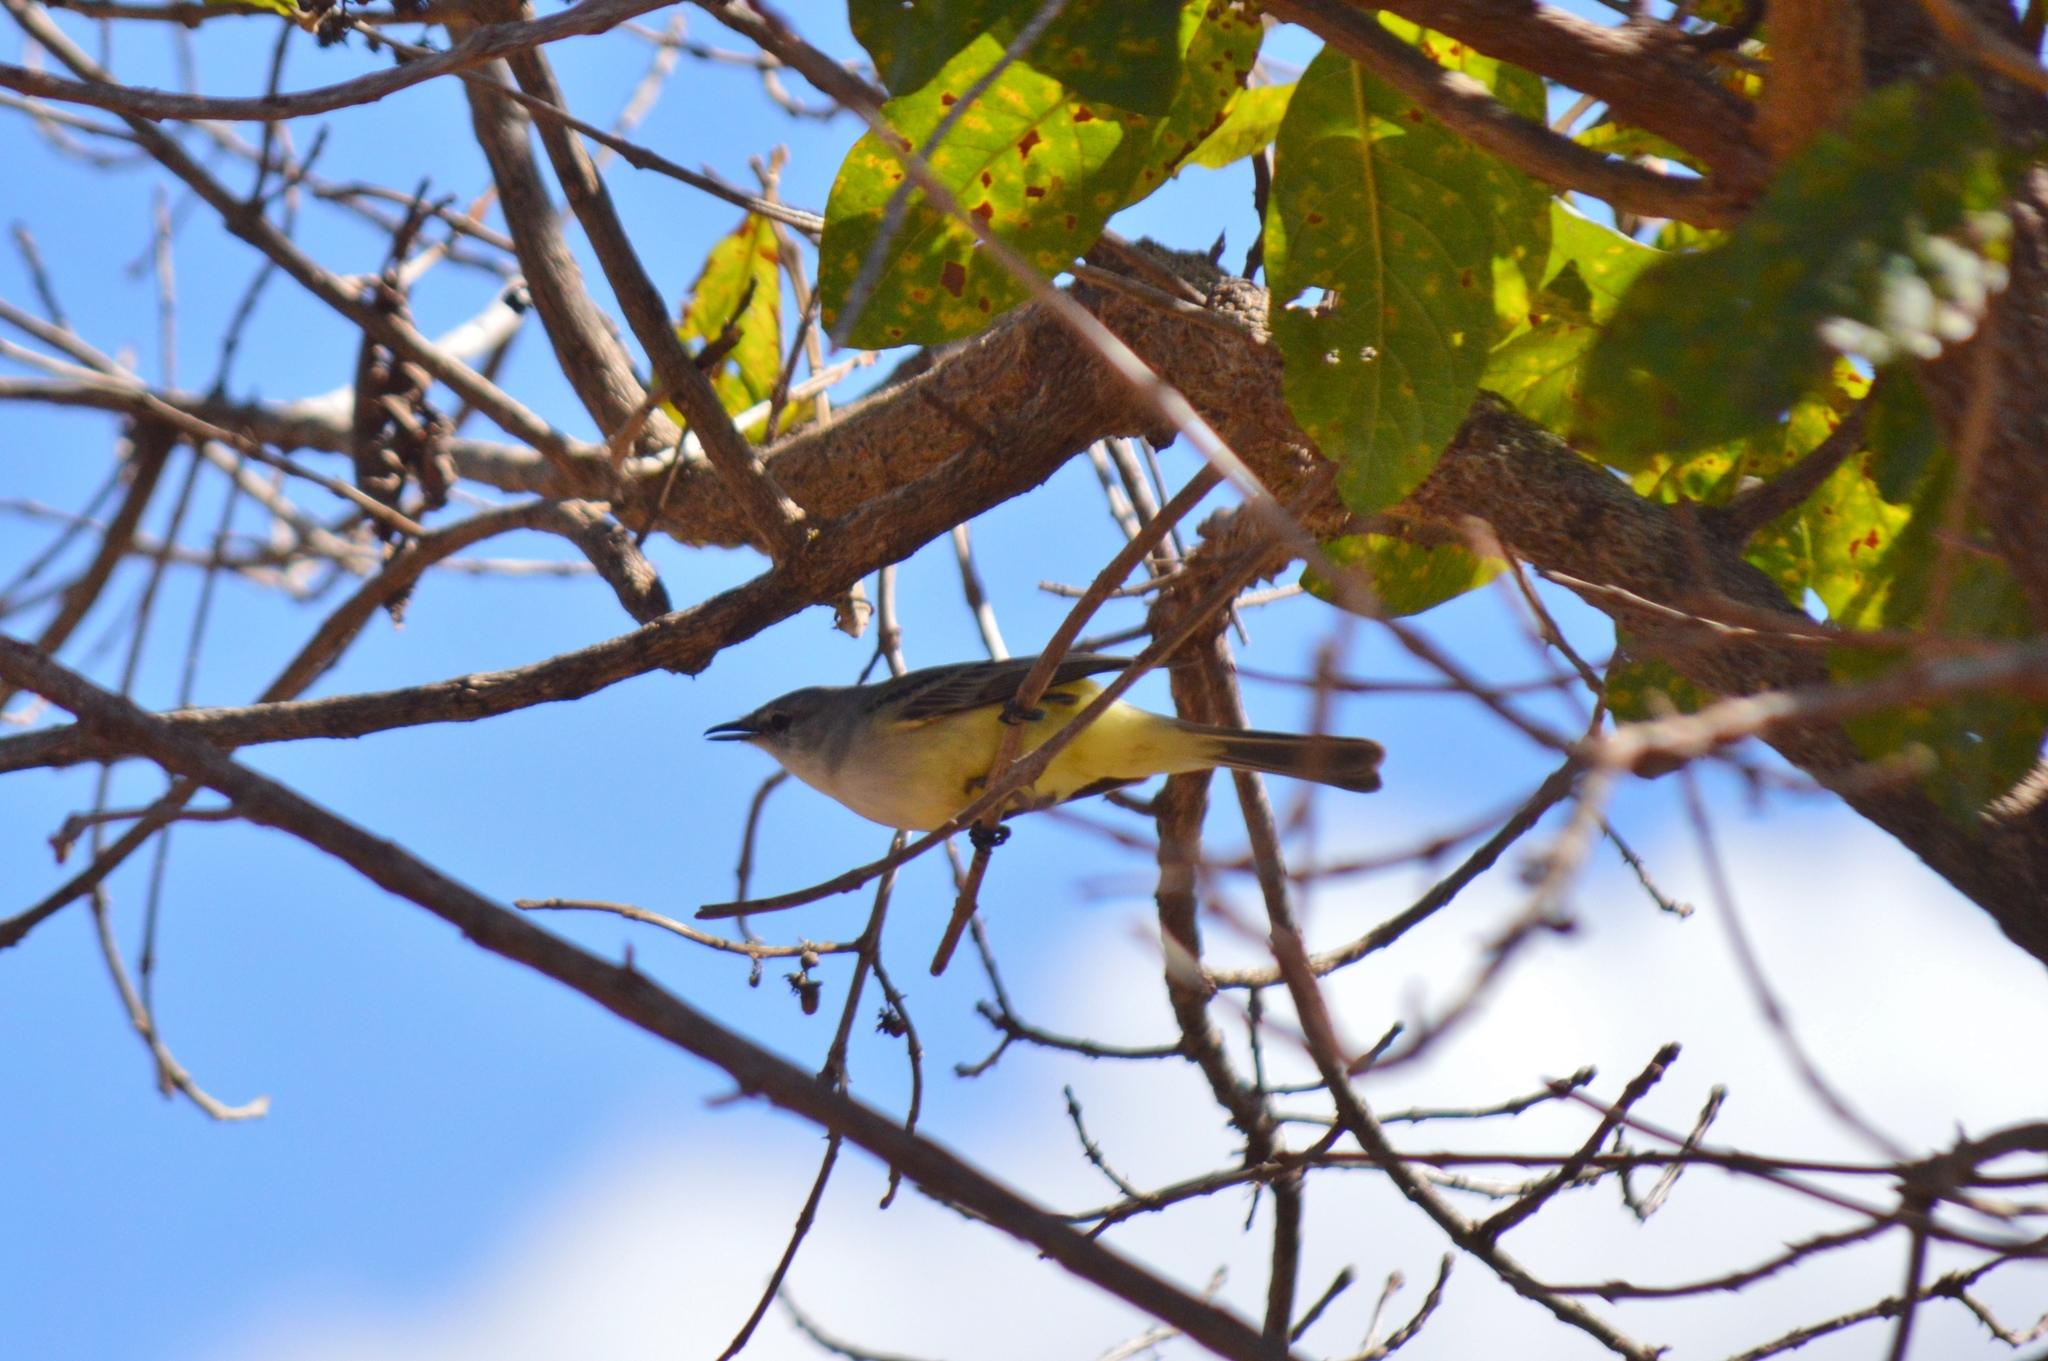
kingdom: Animalia
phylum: Chordata
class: Aves
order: Passeriformes
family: Tyrannidae
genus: Suiriri
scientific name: Suiriri suiriri
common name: Suiriri flycatcher
